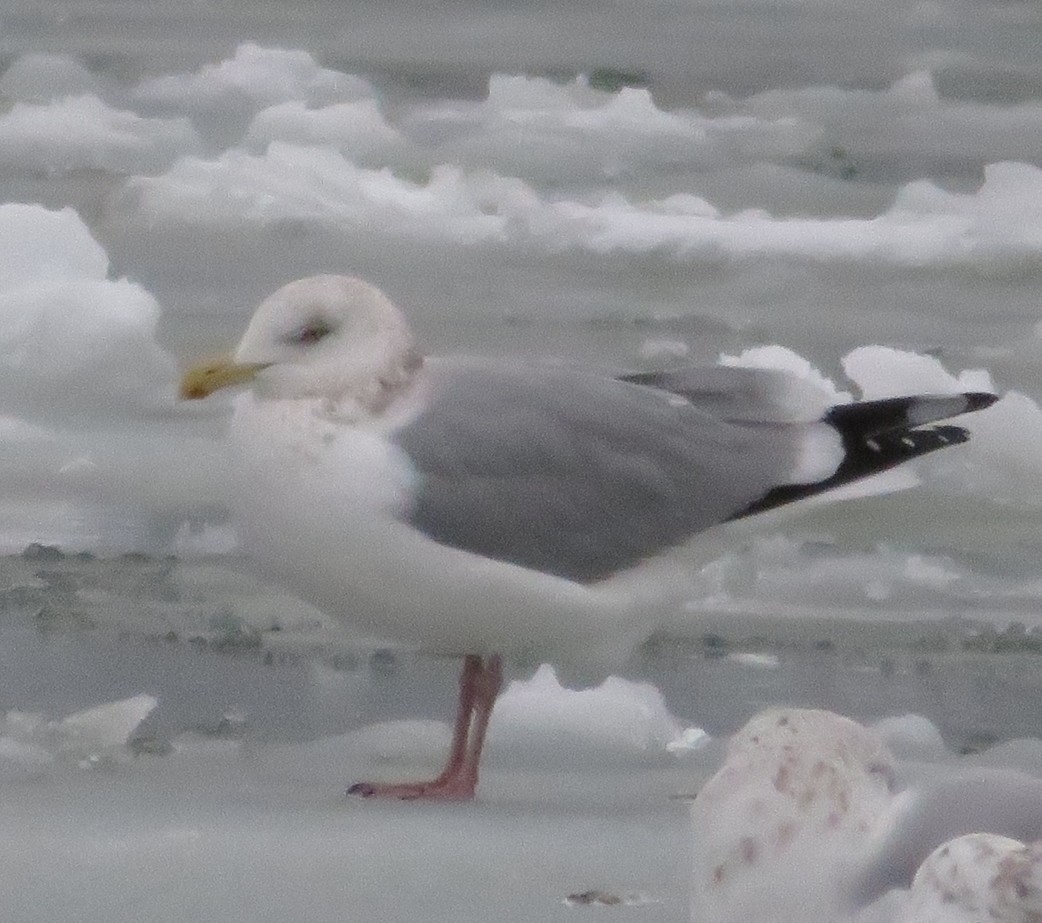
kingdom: Animalia
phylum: Chordata
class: Aves
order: Charadriiformes
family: Laridae
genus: Larus
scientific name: Larus argentatus
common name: Herring gull
